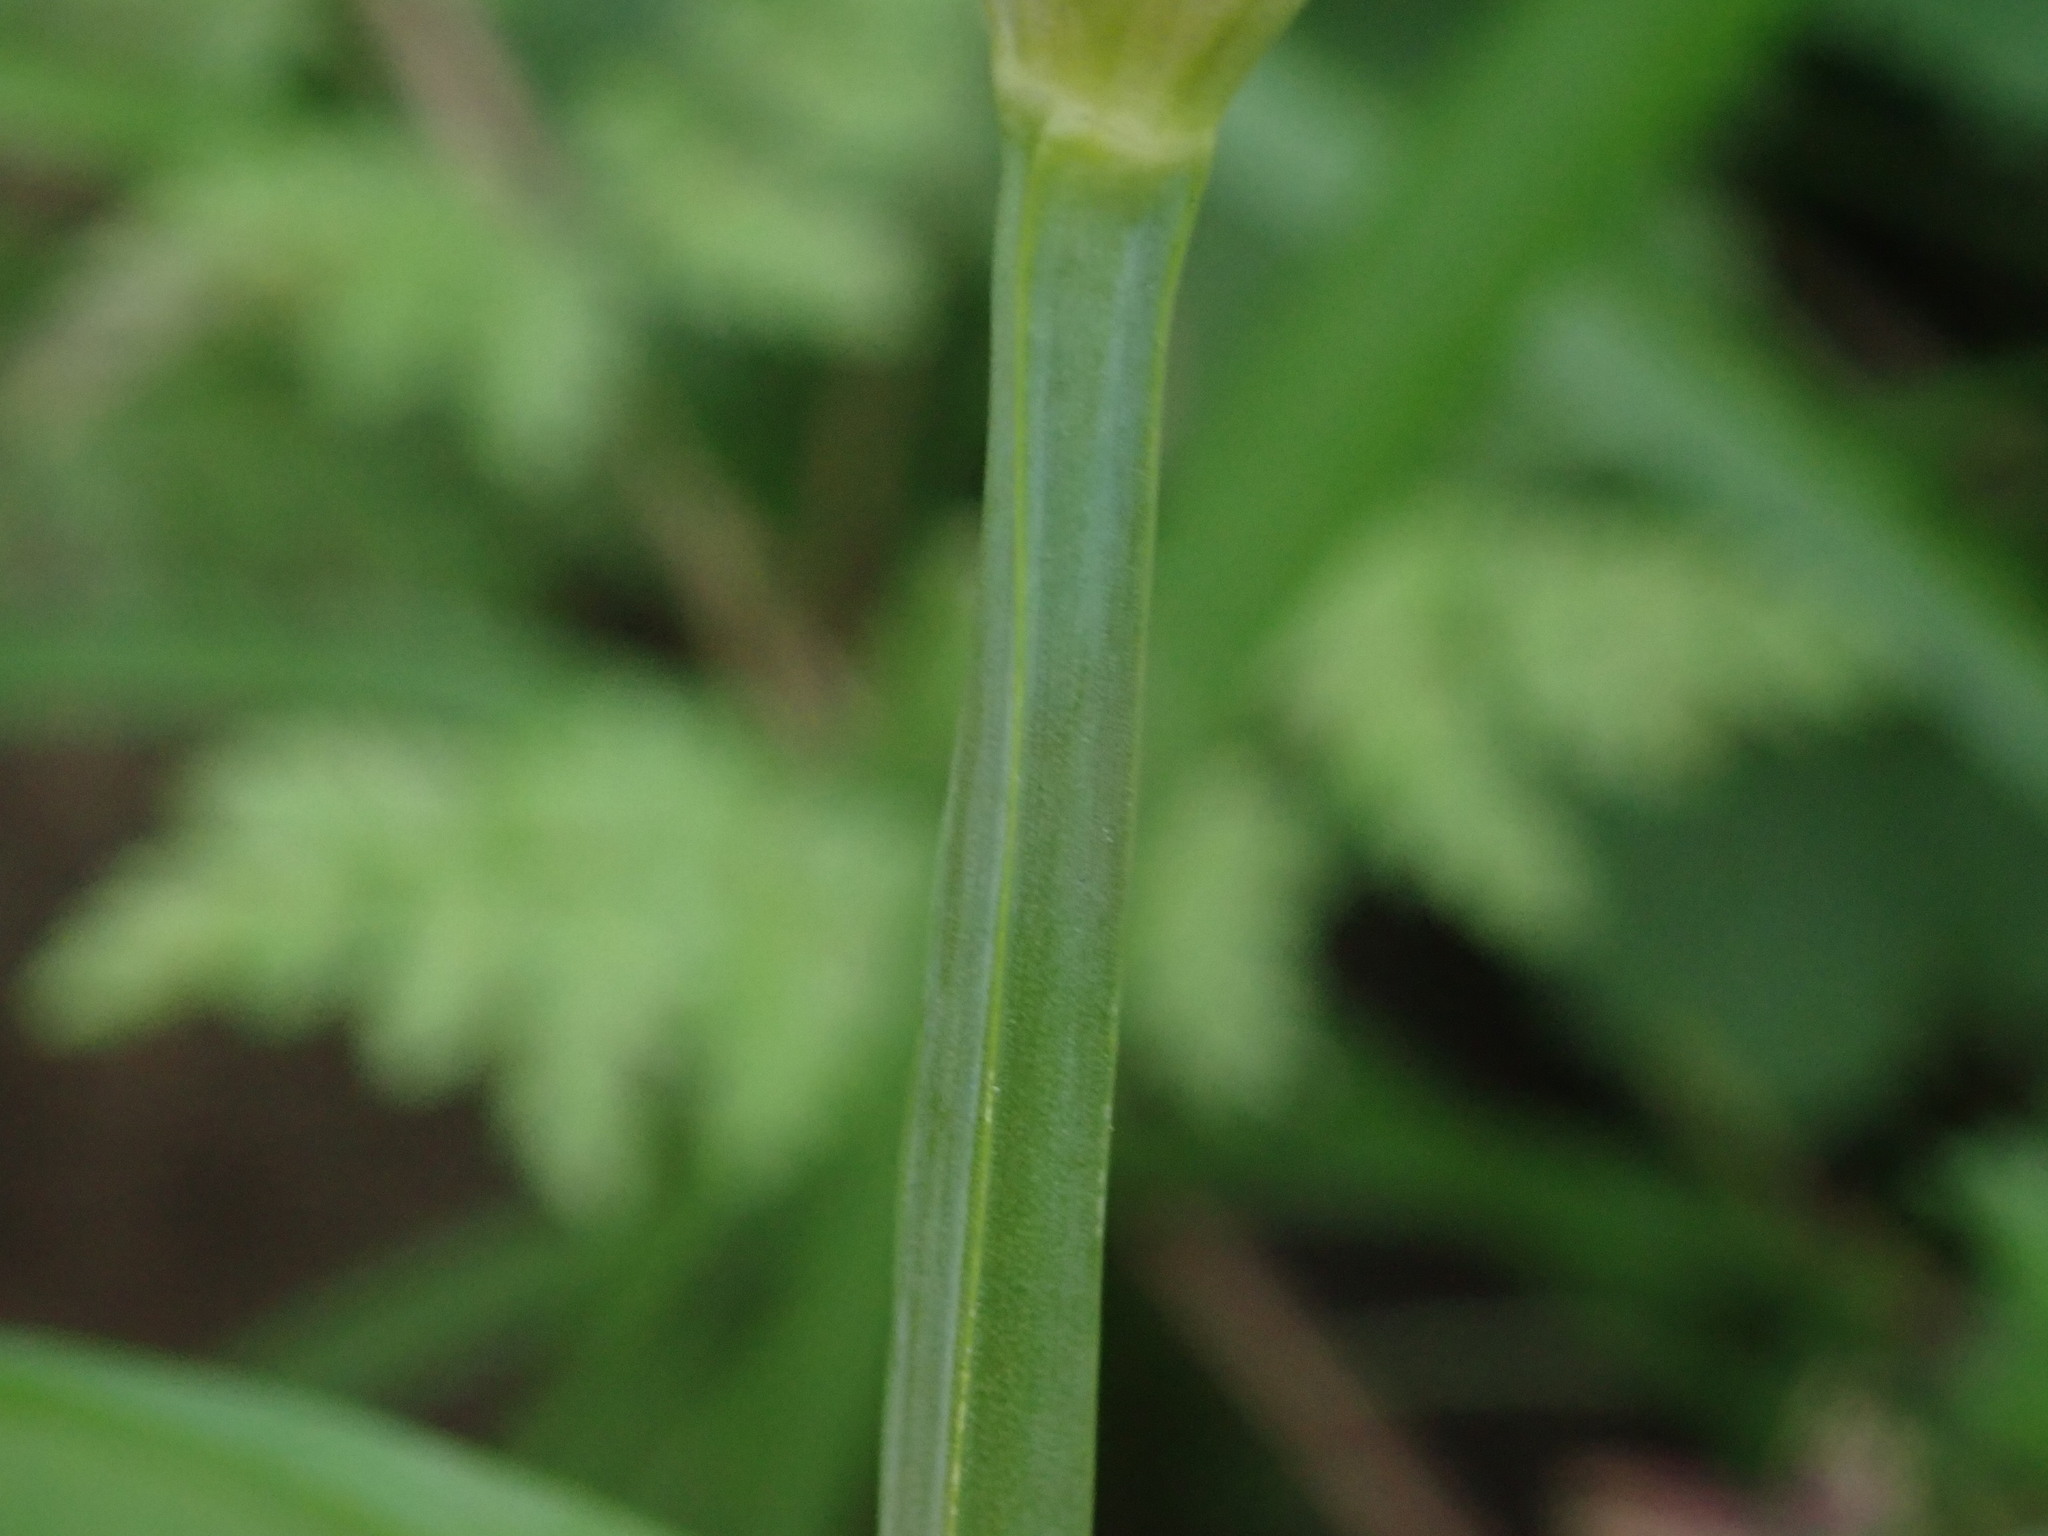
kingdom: Plantae
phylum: Tracheophyta
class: Liliopsida
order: Asparagales
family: Amaryllidaceae
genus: Allium
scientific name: Allium triquetrum
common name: Three-cornered garlic
